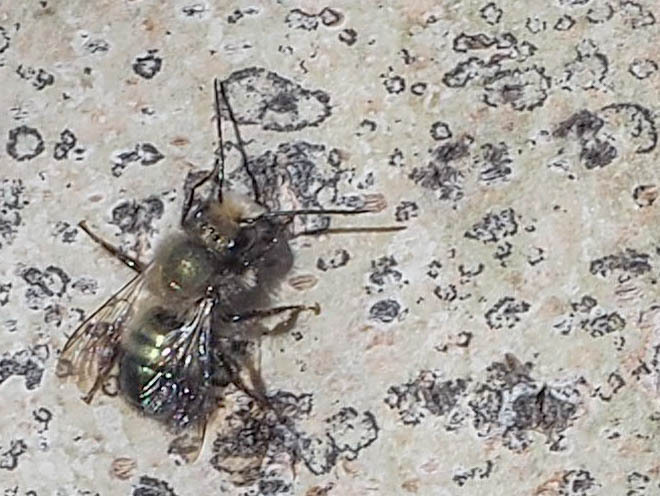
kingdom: Animalia
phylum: Arthropoda
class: Insecta
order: Hymenoptera
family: Megachilidae
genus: Osmia
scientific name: Osmia lignaria
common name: Blue orchard bee
